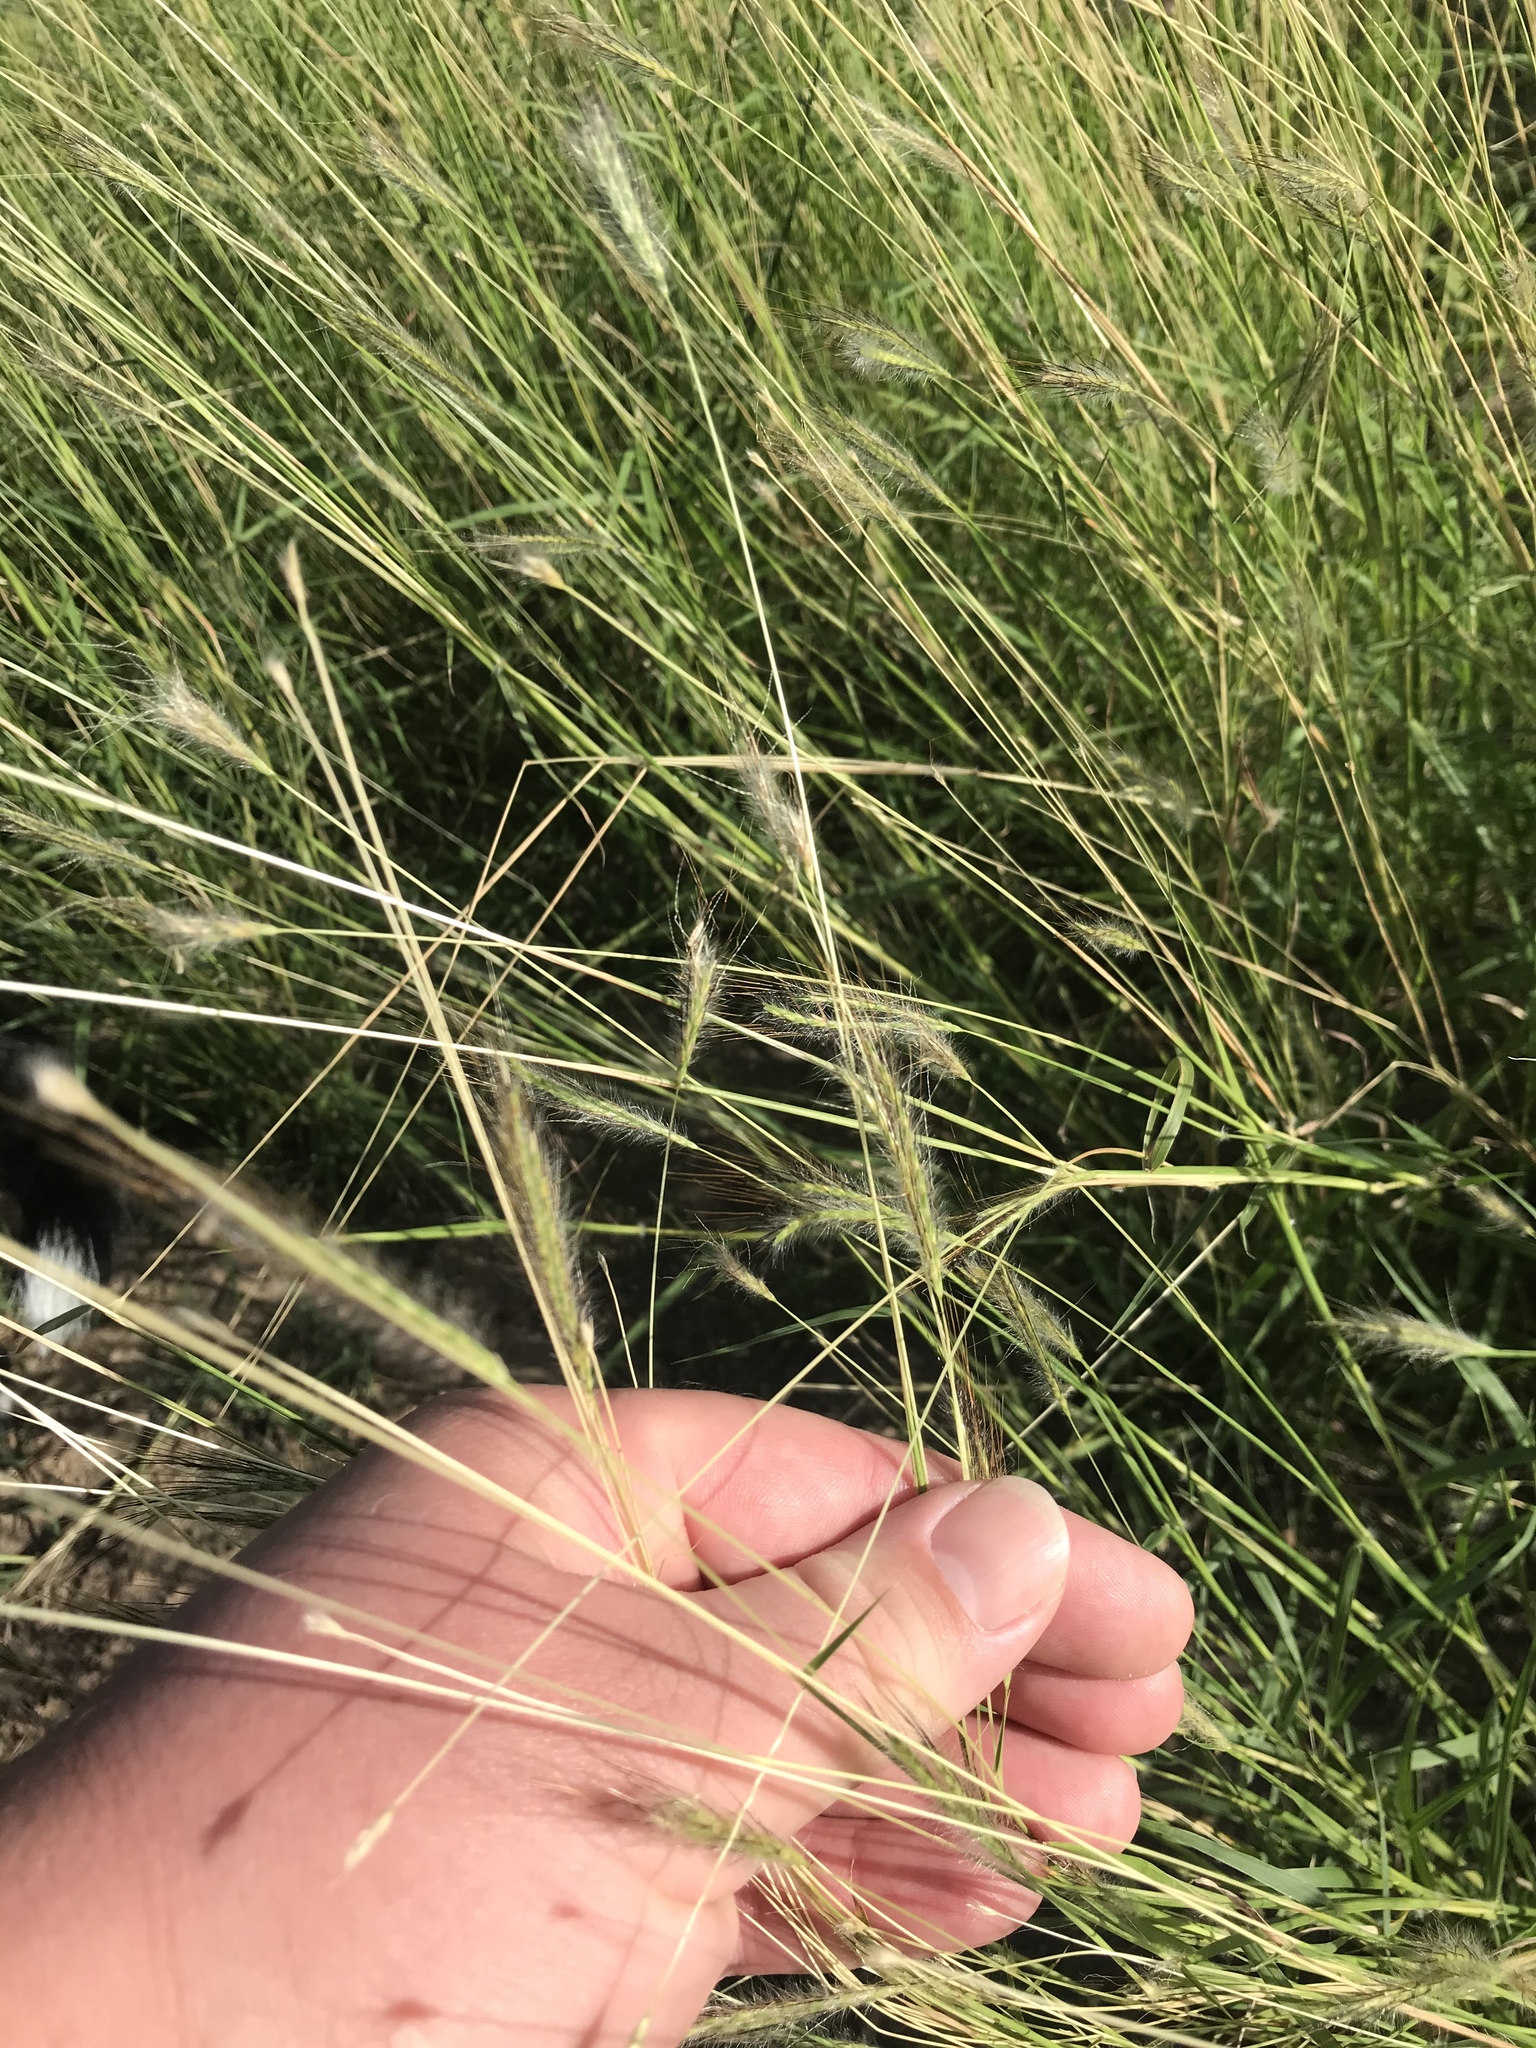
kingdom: Plantae
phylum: Tracheophyta
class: Liliopsida
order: Poales
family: Poaceae
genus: Dichanthium
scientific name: Dichanthium sericeum
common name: Silky bluestem
